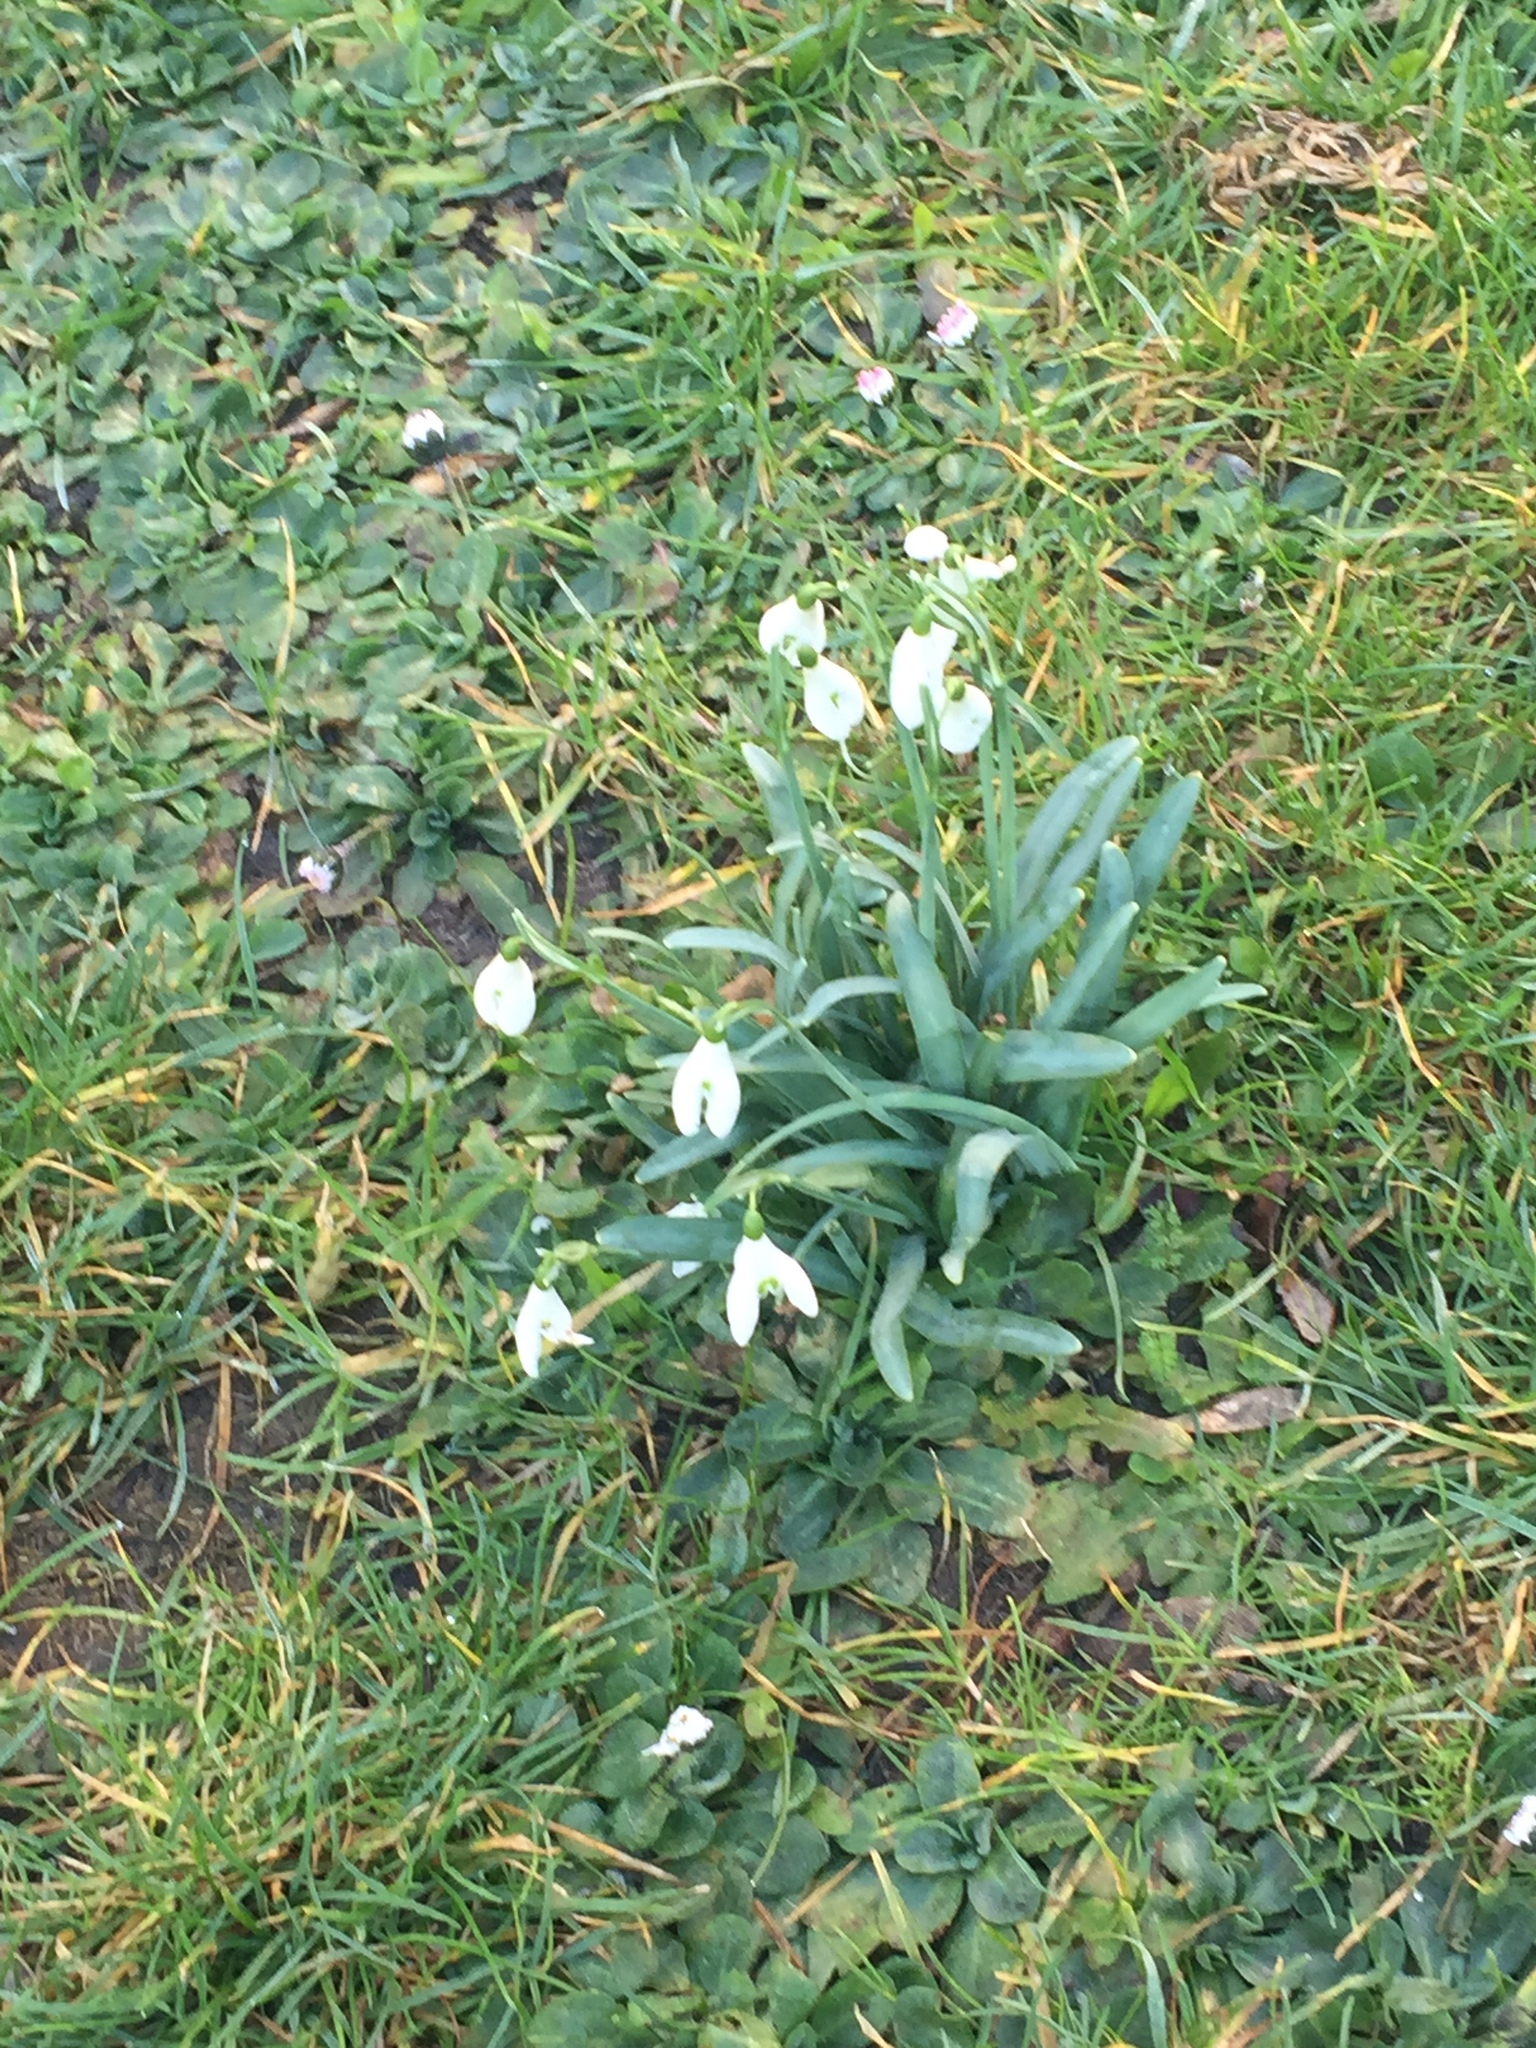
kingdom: Plantae
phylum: Tracheophyta
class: Liliopsida
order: Asparagales
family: Amaryllidaceae
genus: Galanthus
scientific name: Galanthus nivalis
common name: Snowdrop
